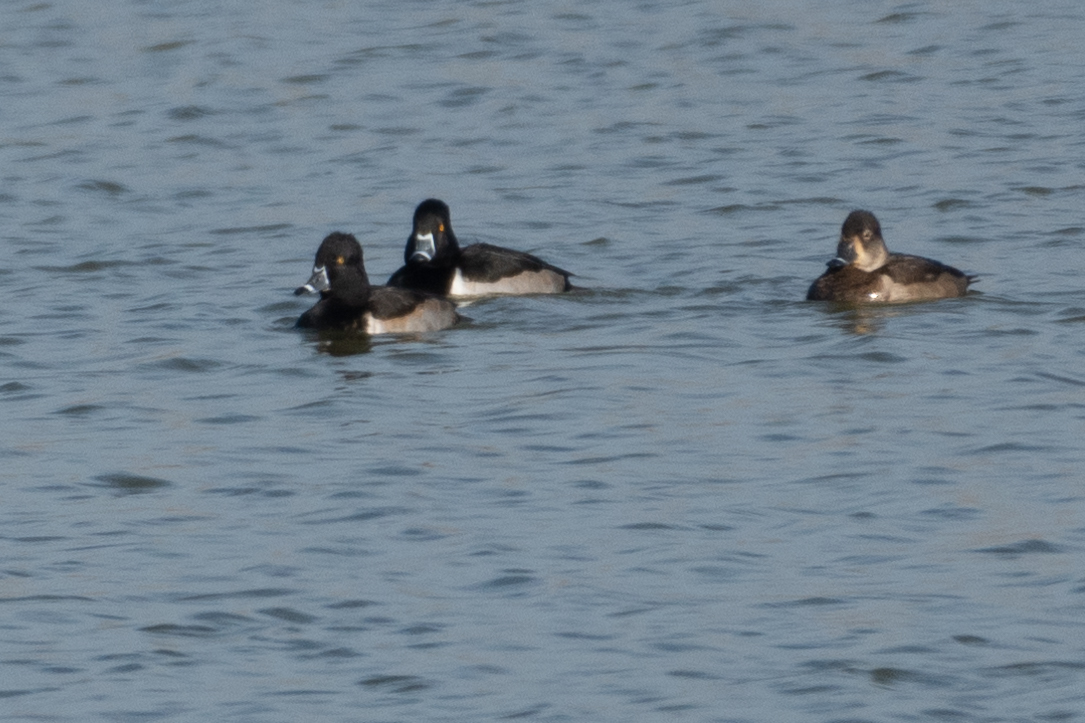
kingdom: Animalia
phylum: Chordata
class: Aves
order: Anseriformes
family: Anatidae
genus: Aythya
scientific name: Aythya collaris
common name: Ring-necked duck
